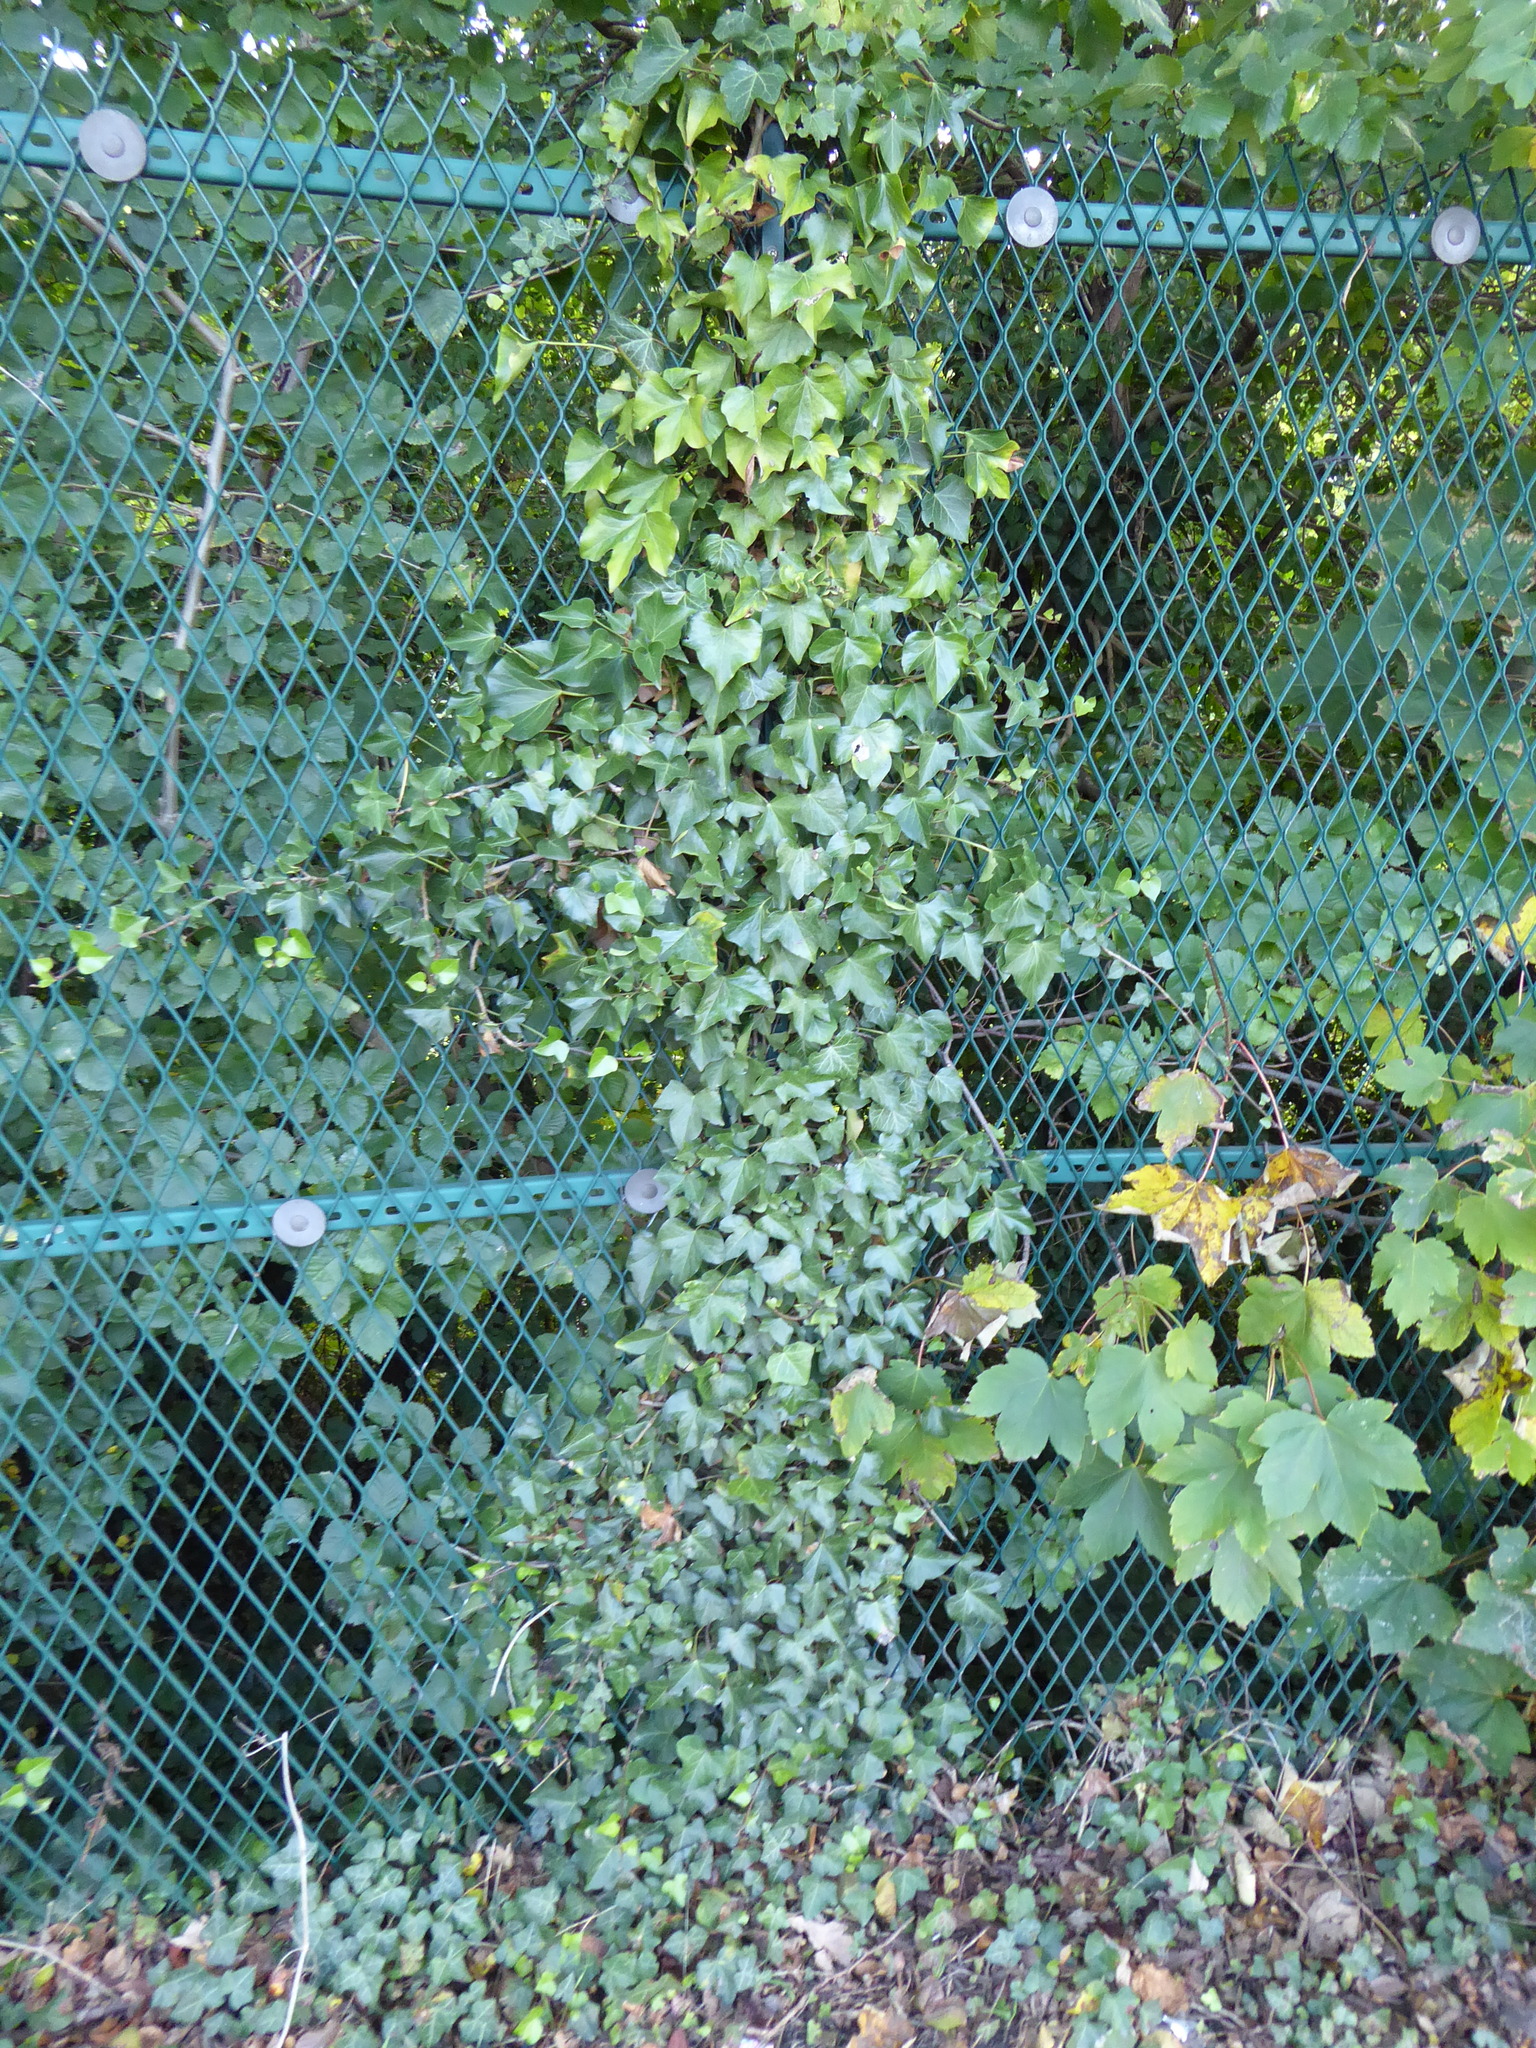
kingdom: Plantae
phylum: Tracheophyta
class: Magnoliopsida
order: Apiales
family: Araliaceae
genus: Hedera
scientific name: Hedera helix
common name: Ivy
